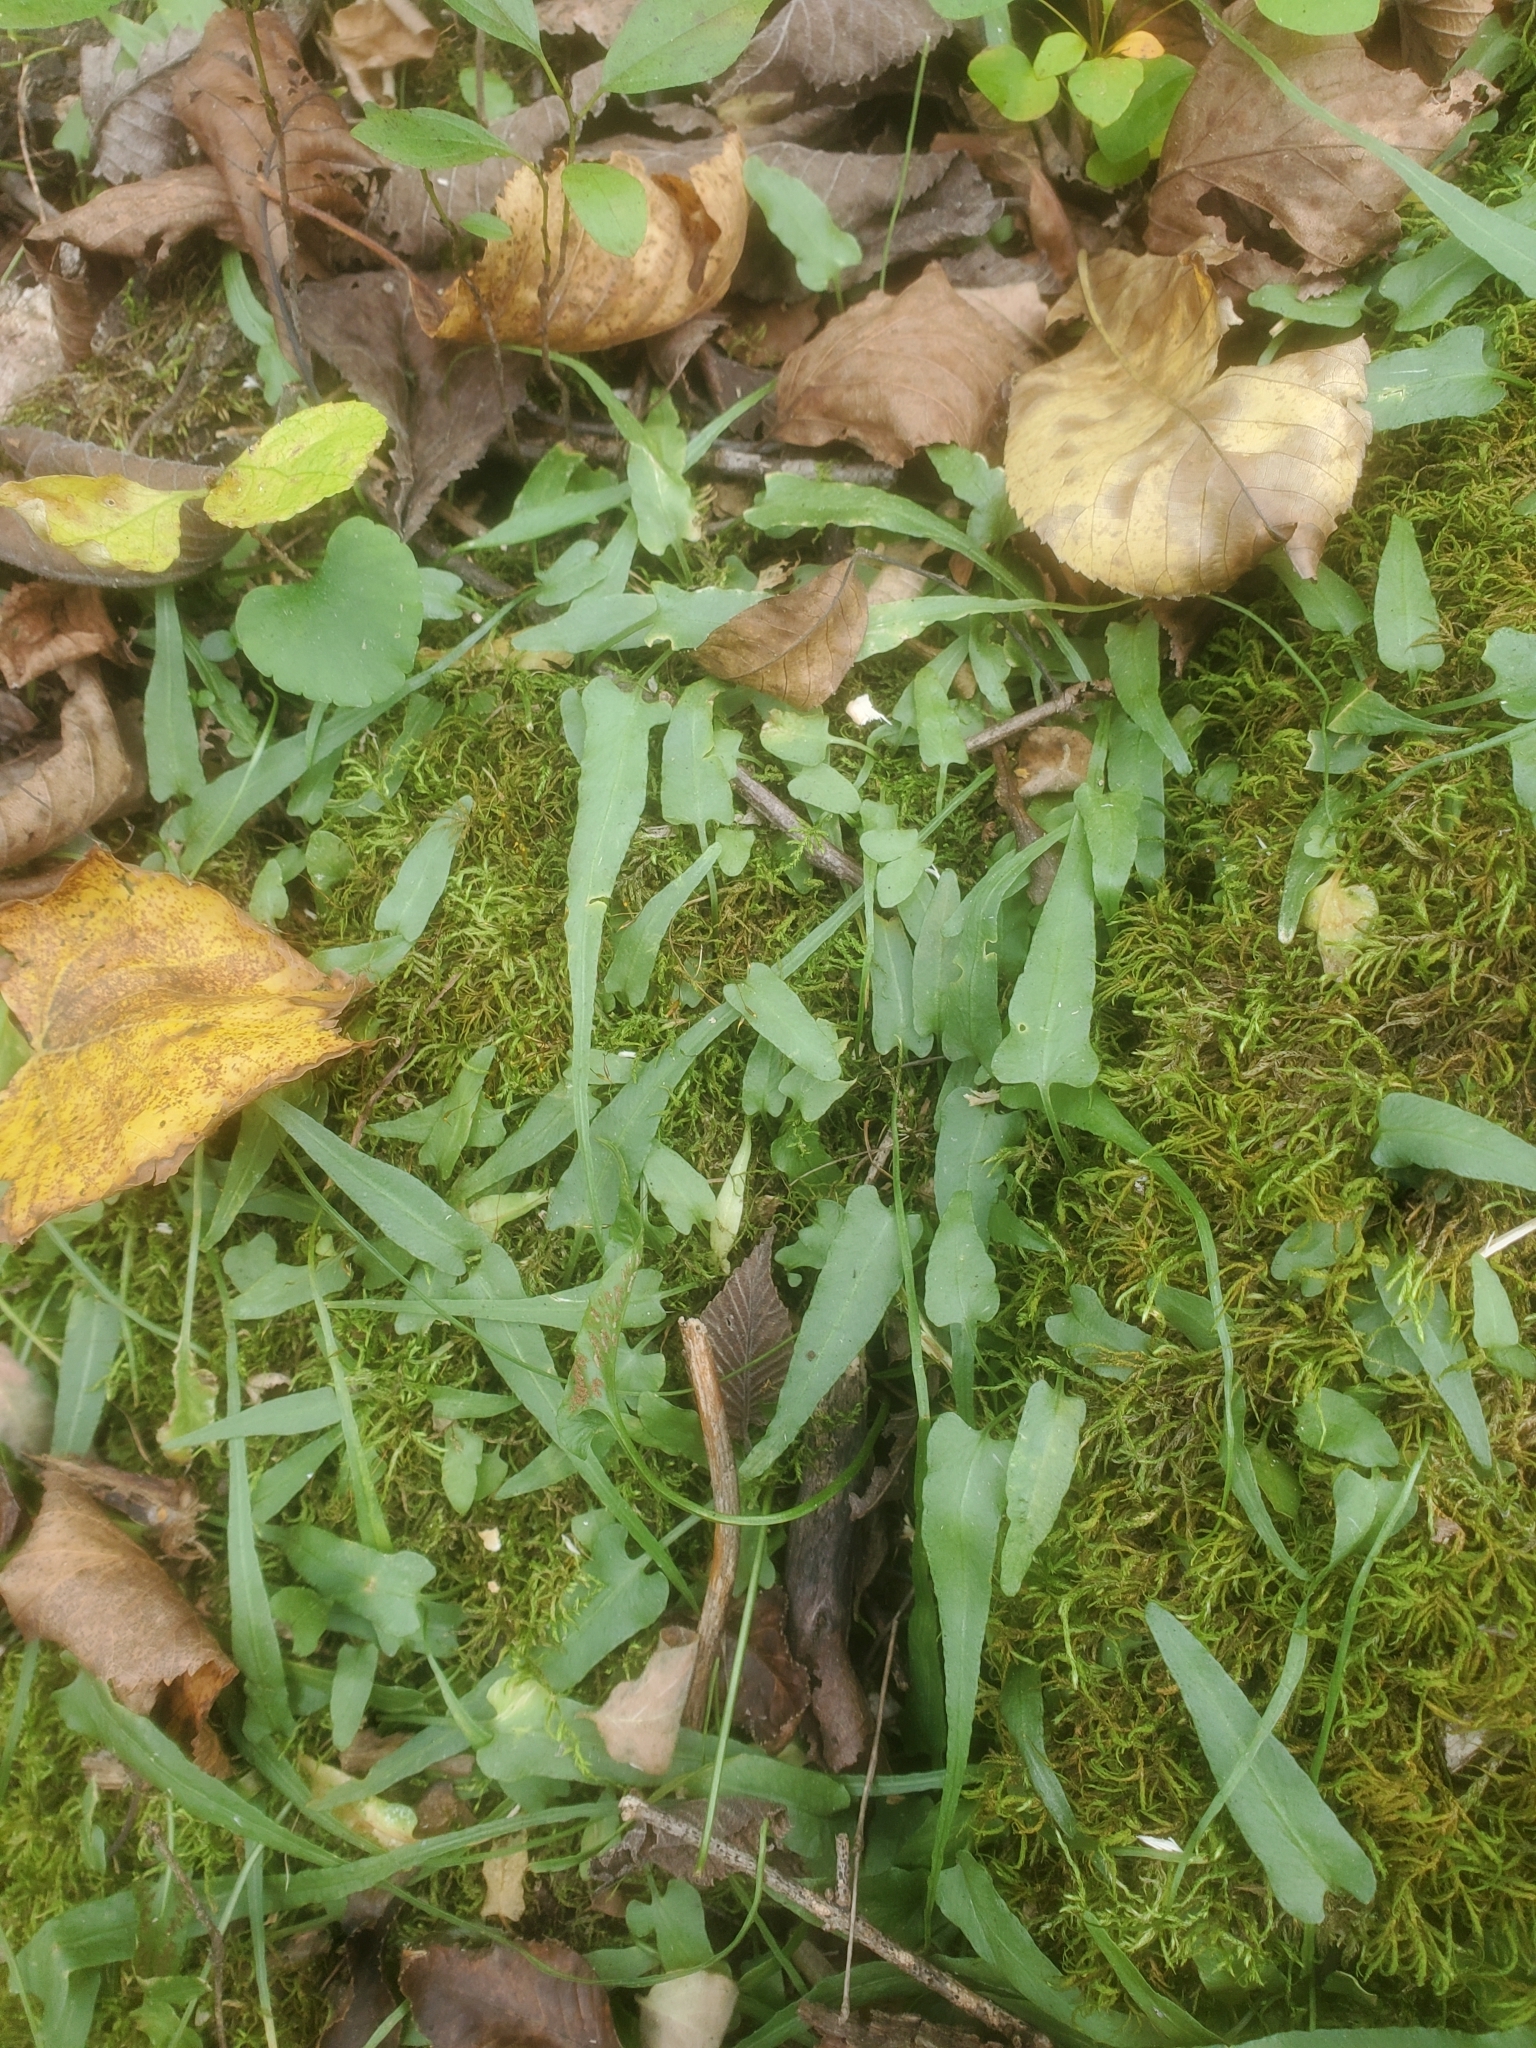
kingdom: Plantae
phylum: Tracheophyta
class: Polypodiopsida
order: Polypodiales
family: Aspleniaceae
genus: Asplenium
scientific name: Asplenium rhizophyllum
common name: Walking fern
